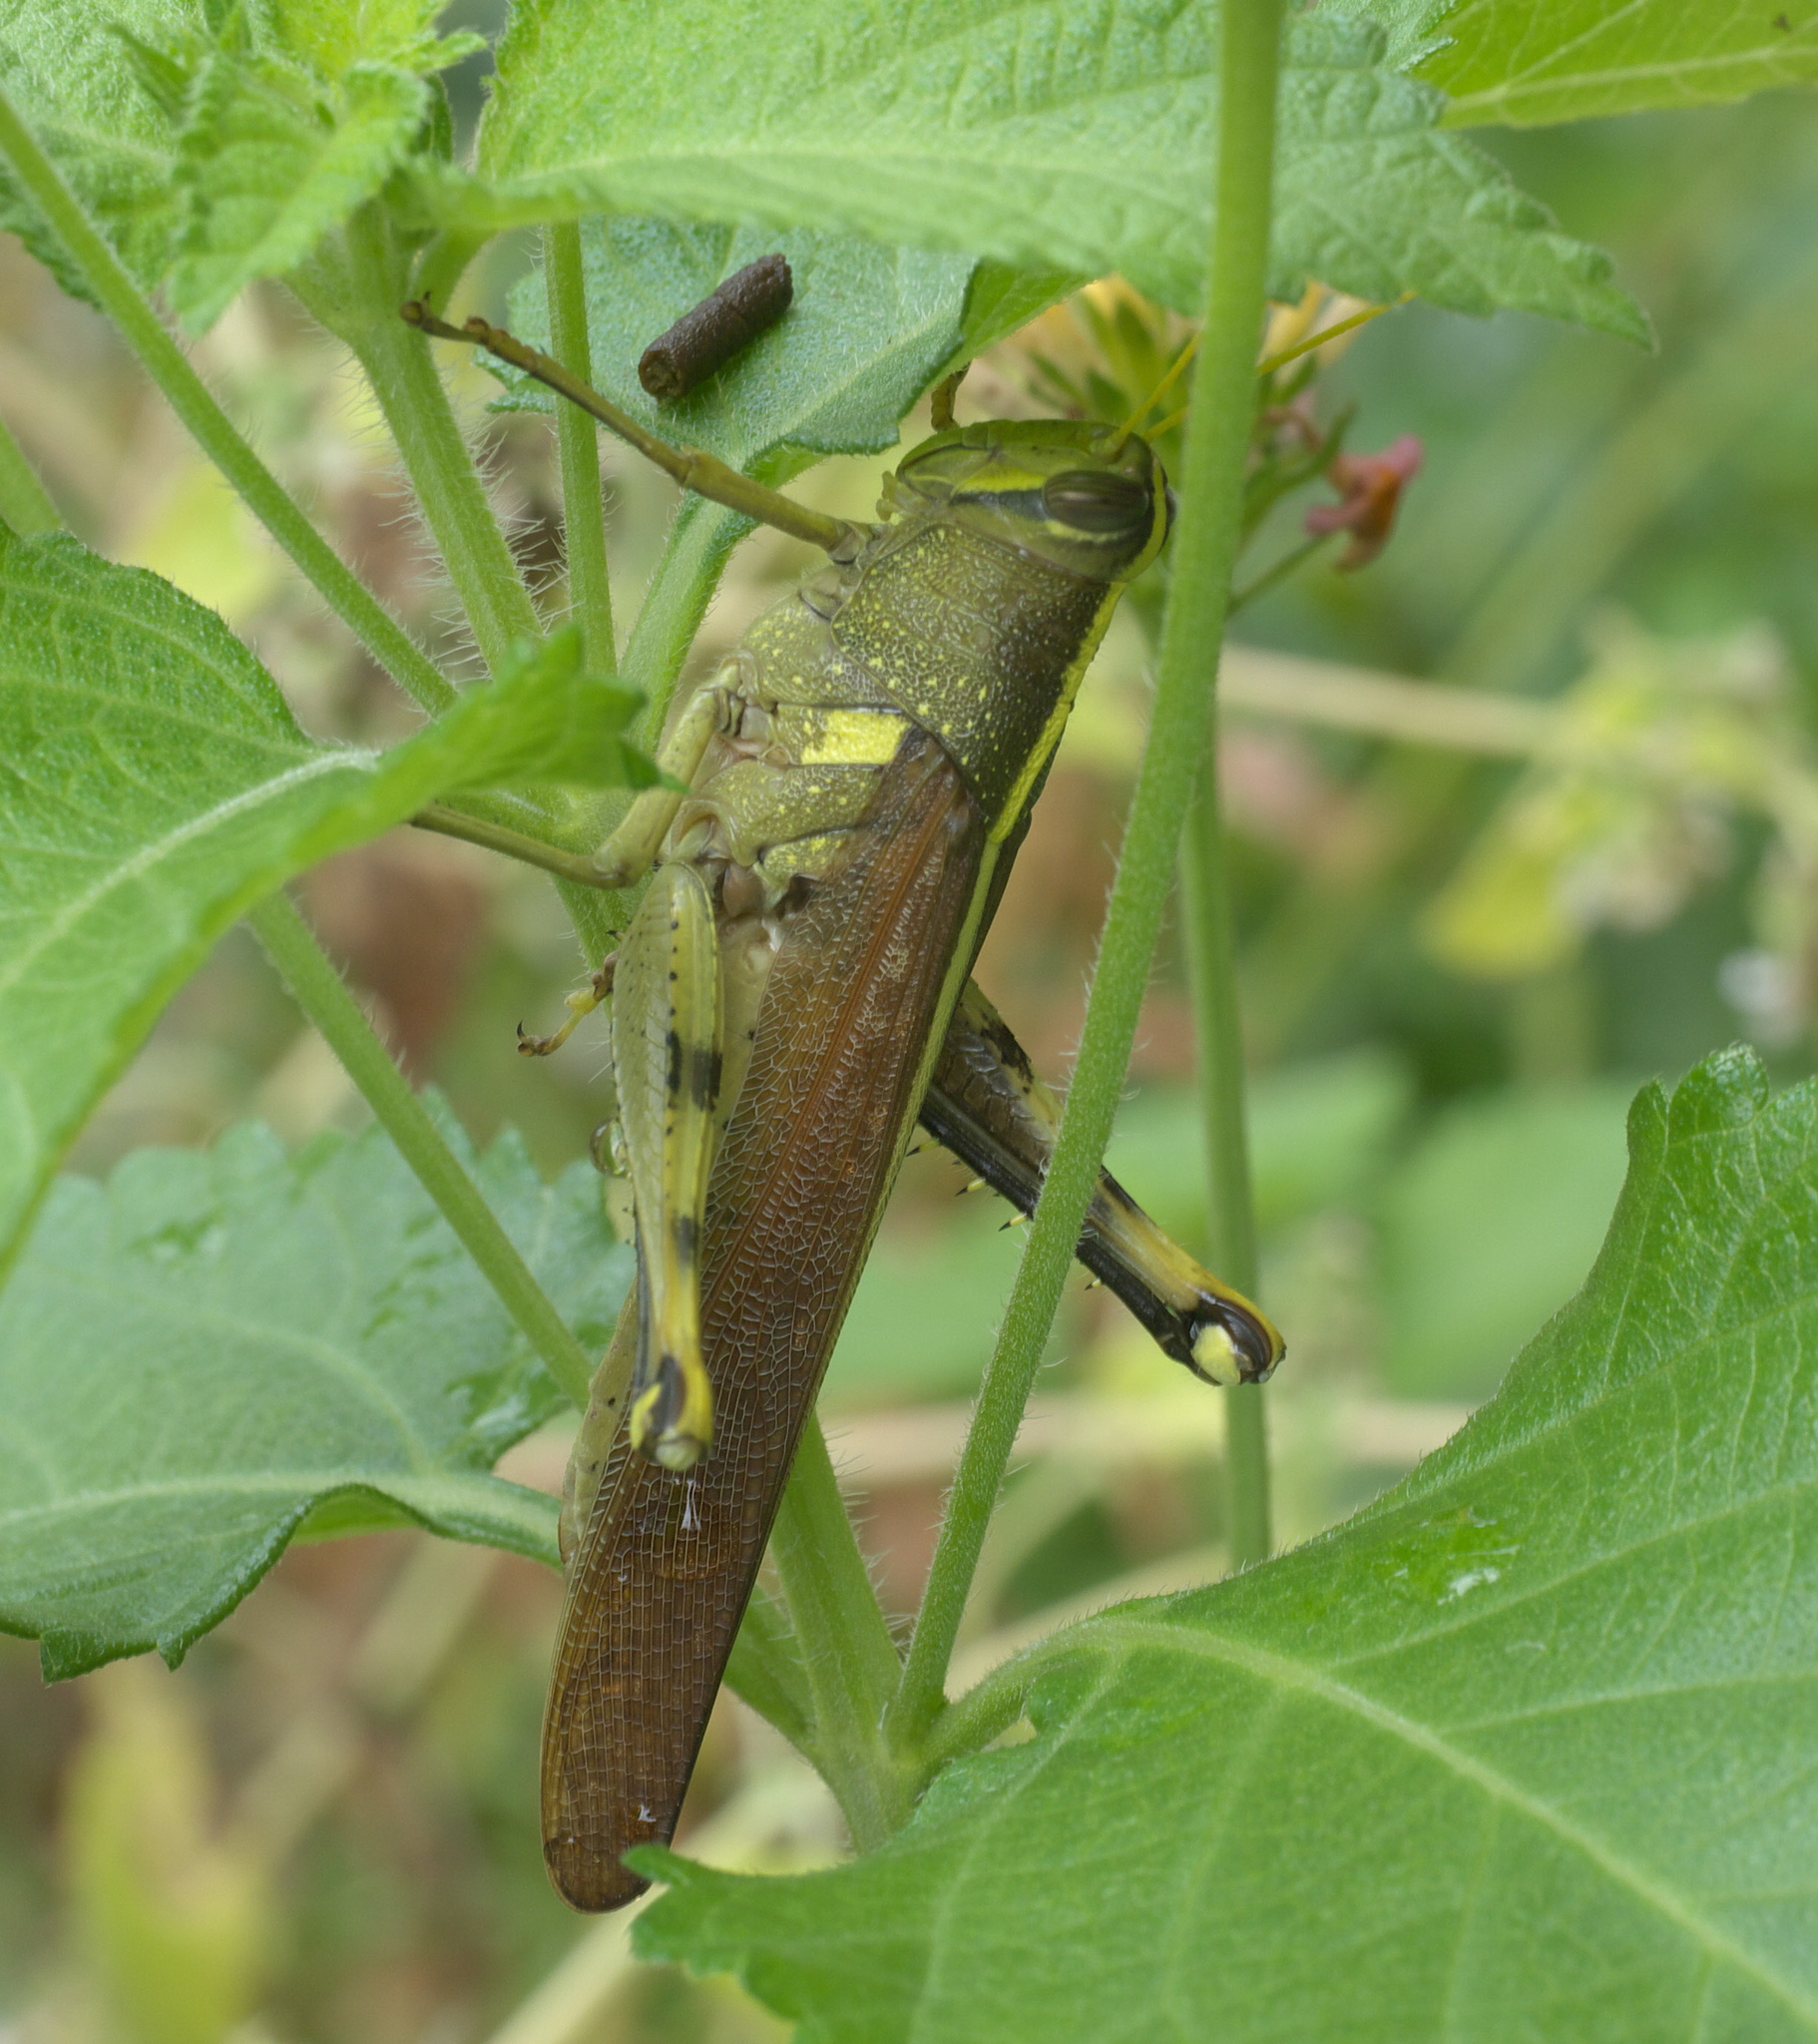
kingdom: Animalia
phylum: Arthropoda
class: Insecta
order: Orthoptera
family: Acrididae
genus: Schistocerca
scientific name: Schistocerca obscura
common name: Obscure bird grasshopper
